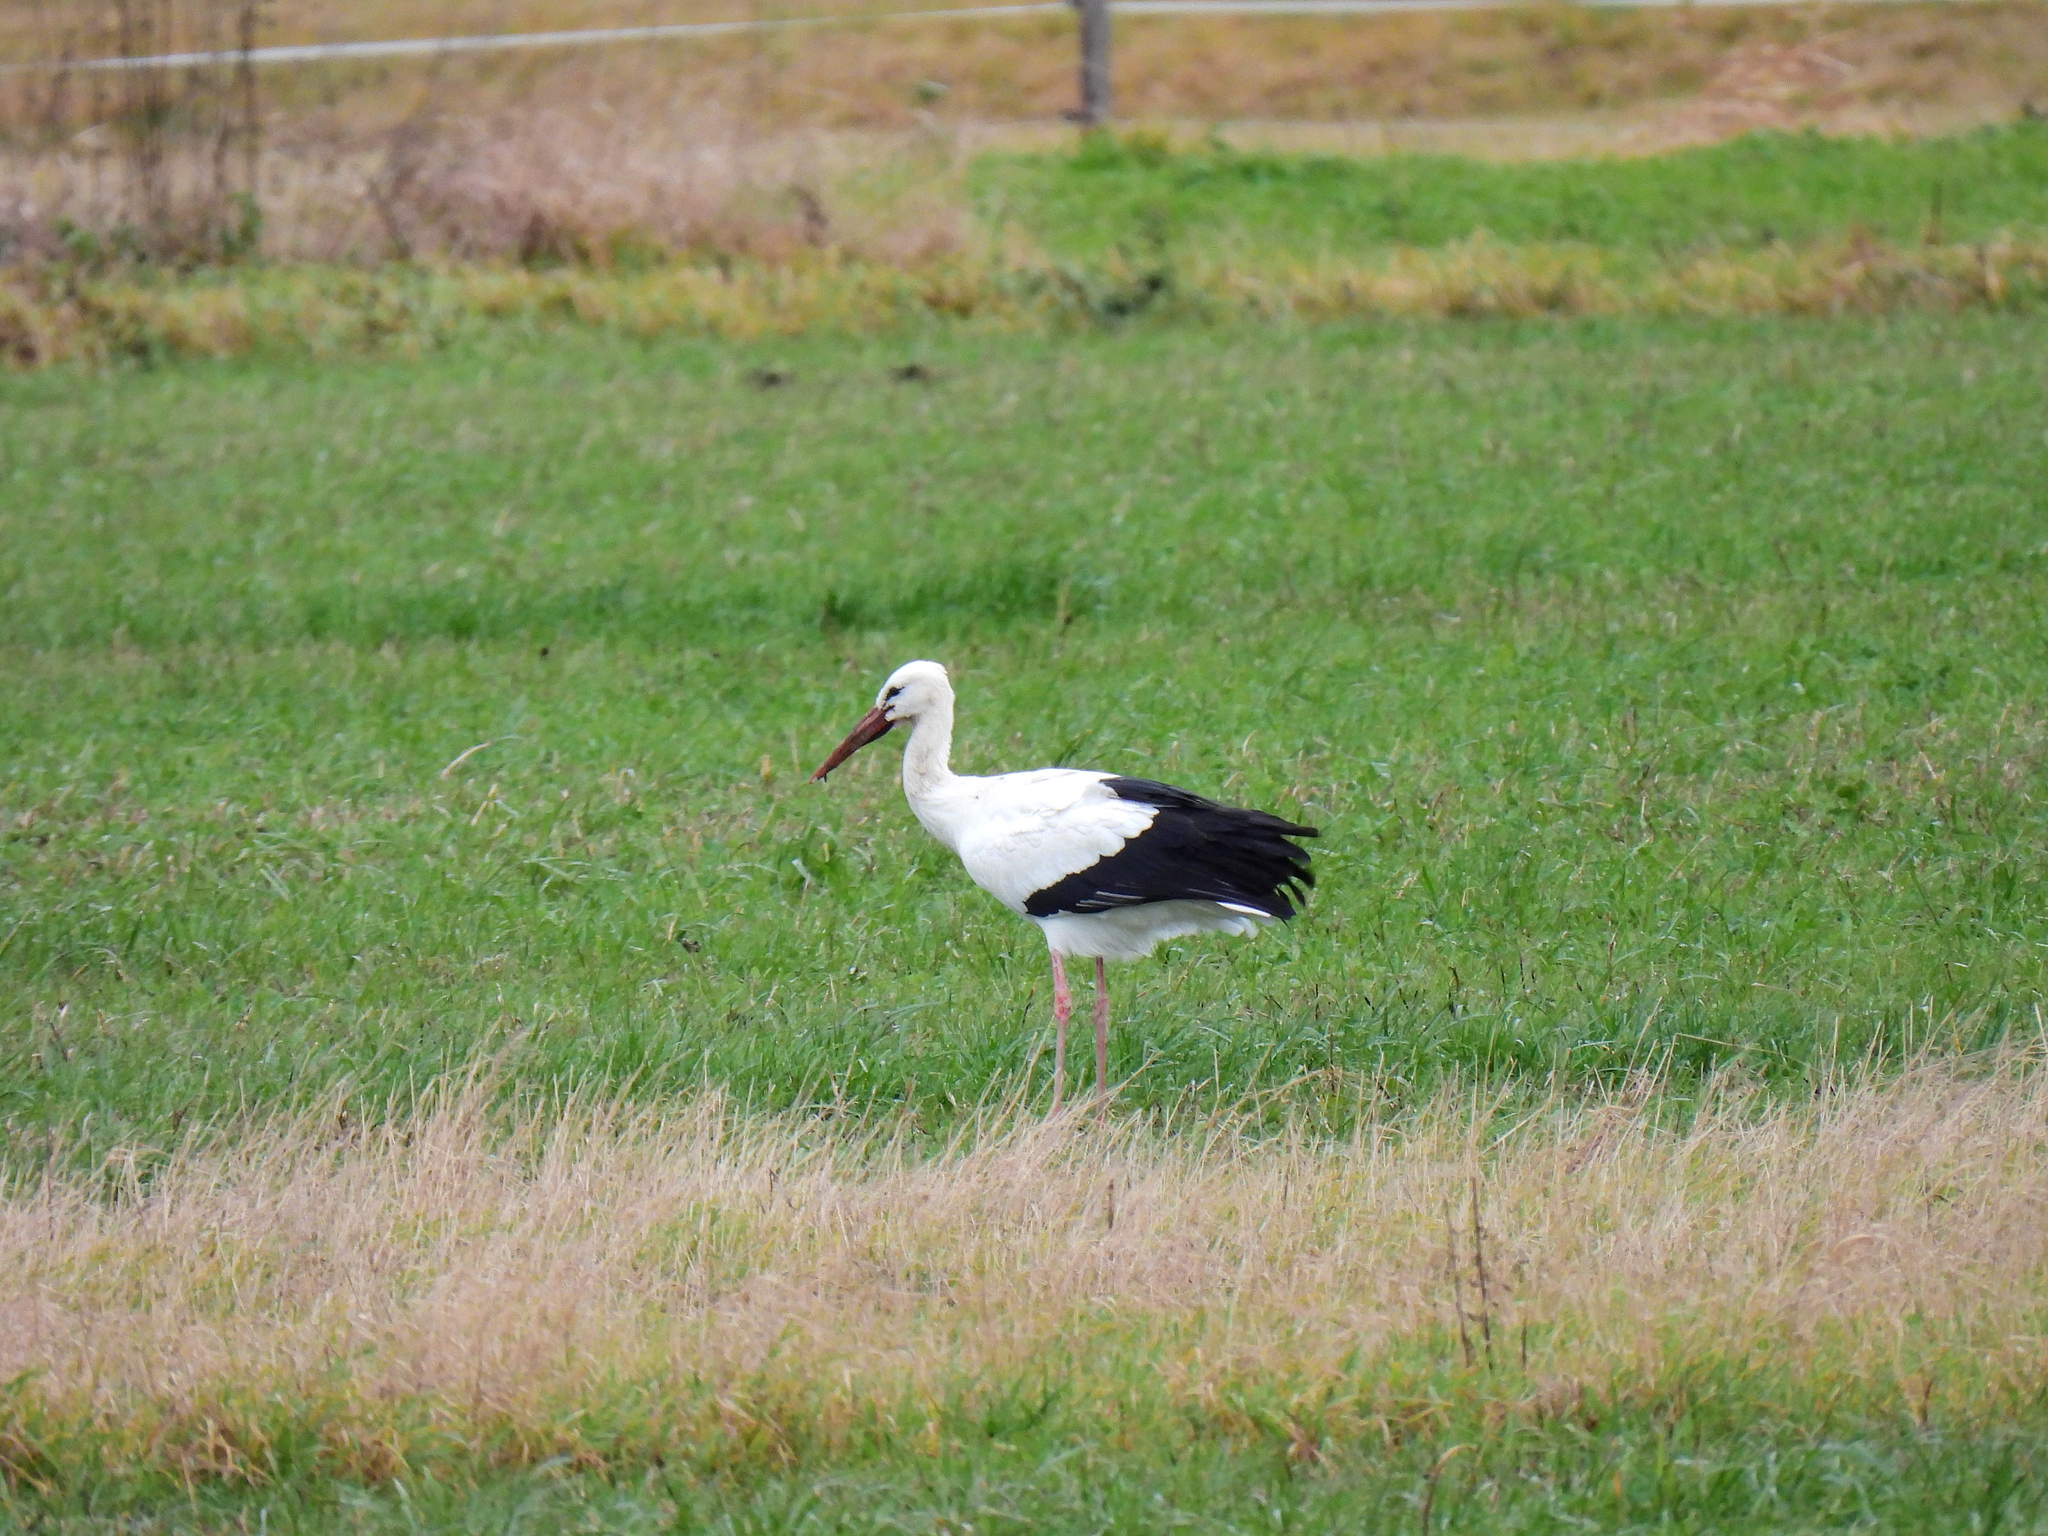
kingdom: Animalia
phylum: Chordata
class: Aves
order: Ciconiiformes
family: Ciconiidae
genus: Ciconia
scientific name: Ciconia ciconia
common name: White stork
